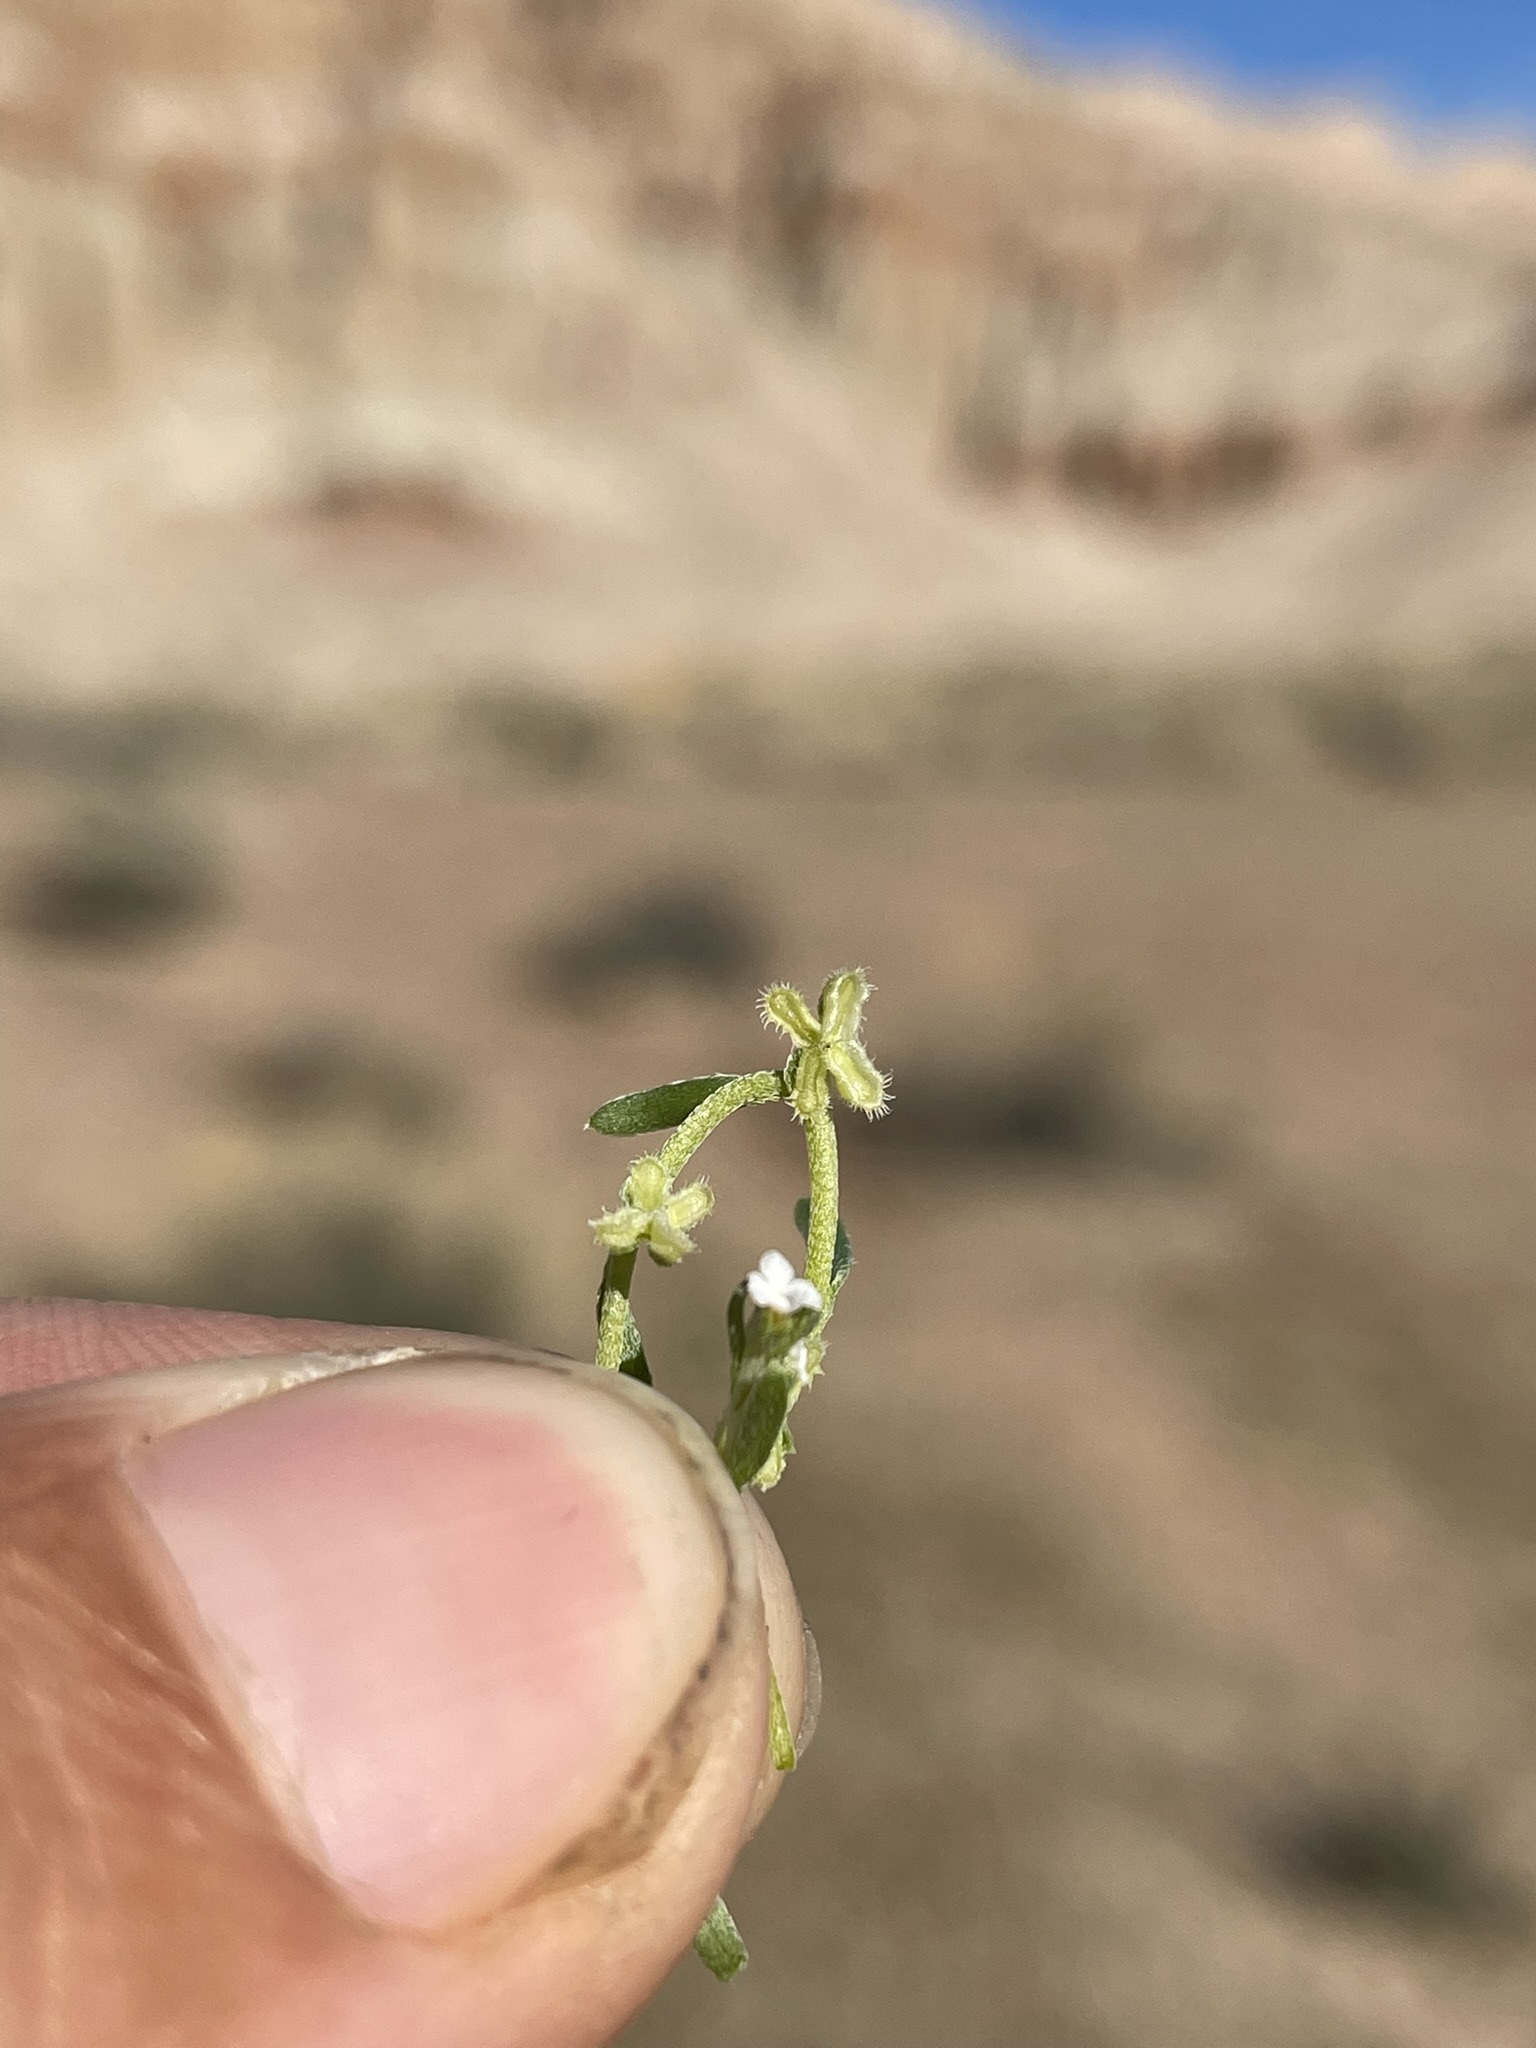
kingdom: Plantae
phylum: Tracheophyta
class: Magnoliopsida
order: Boraginales
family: Boraginaceae
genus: Pectocarya
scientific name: Pectocarya penicillata
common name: Short-leaved combseed
